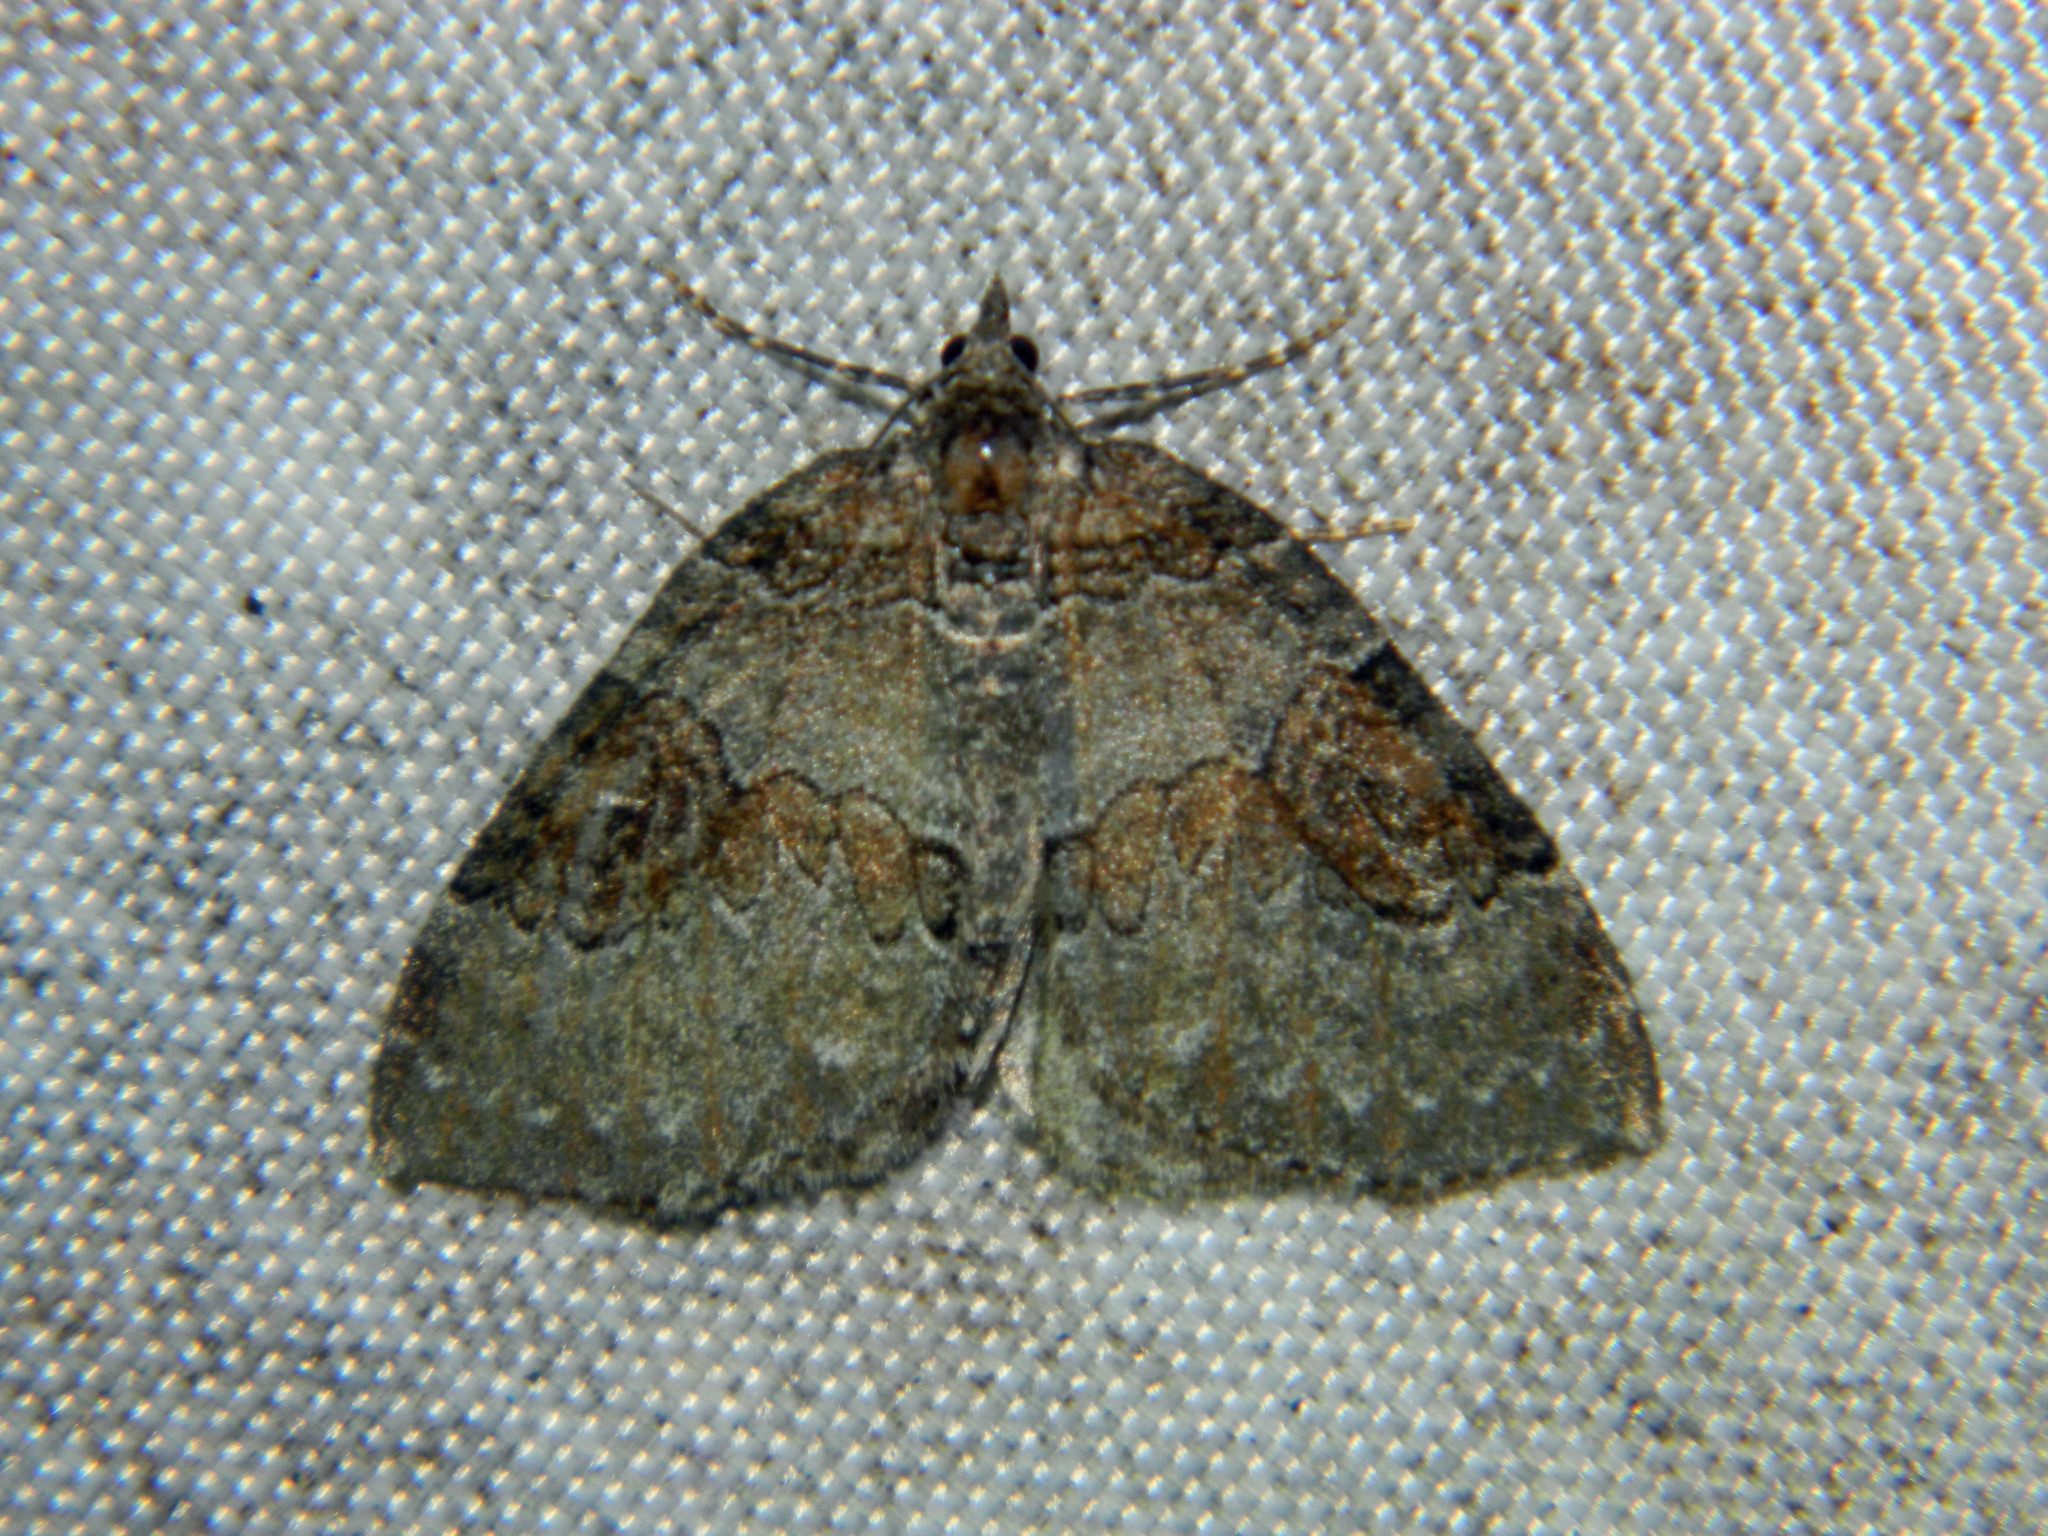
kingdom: Animalia
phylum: Arthropoda
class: Insecta
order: Lepidoptera
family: Geometridae
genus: Plemyria
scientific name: Plemyria georgii
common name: George's carpet moth
